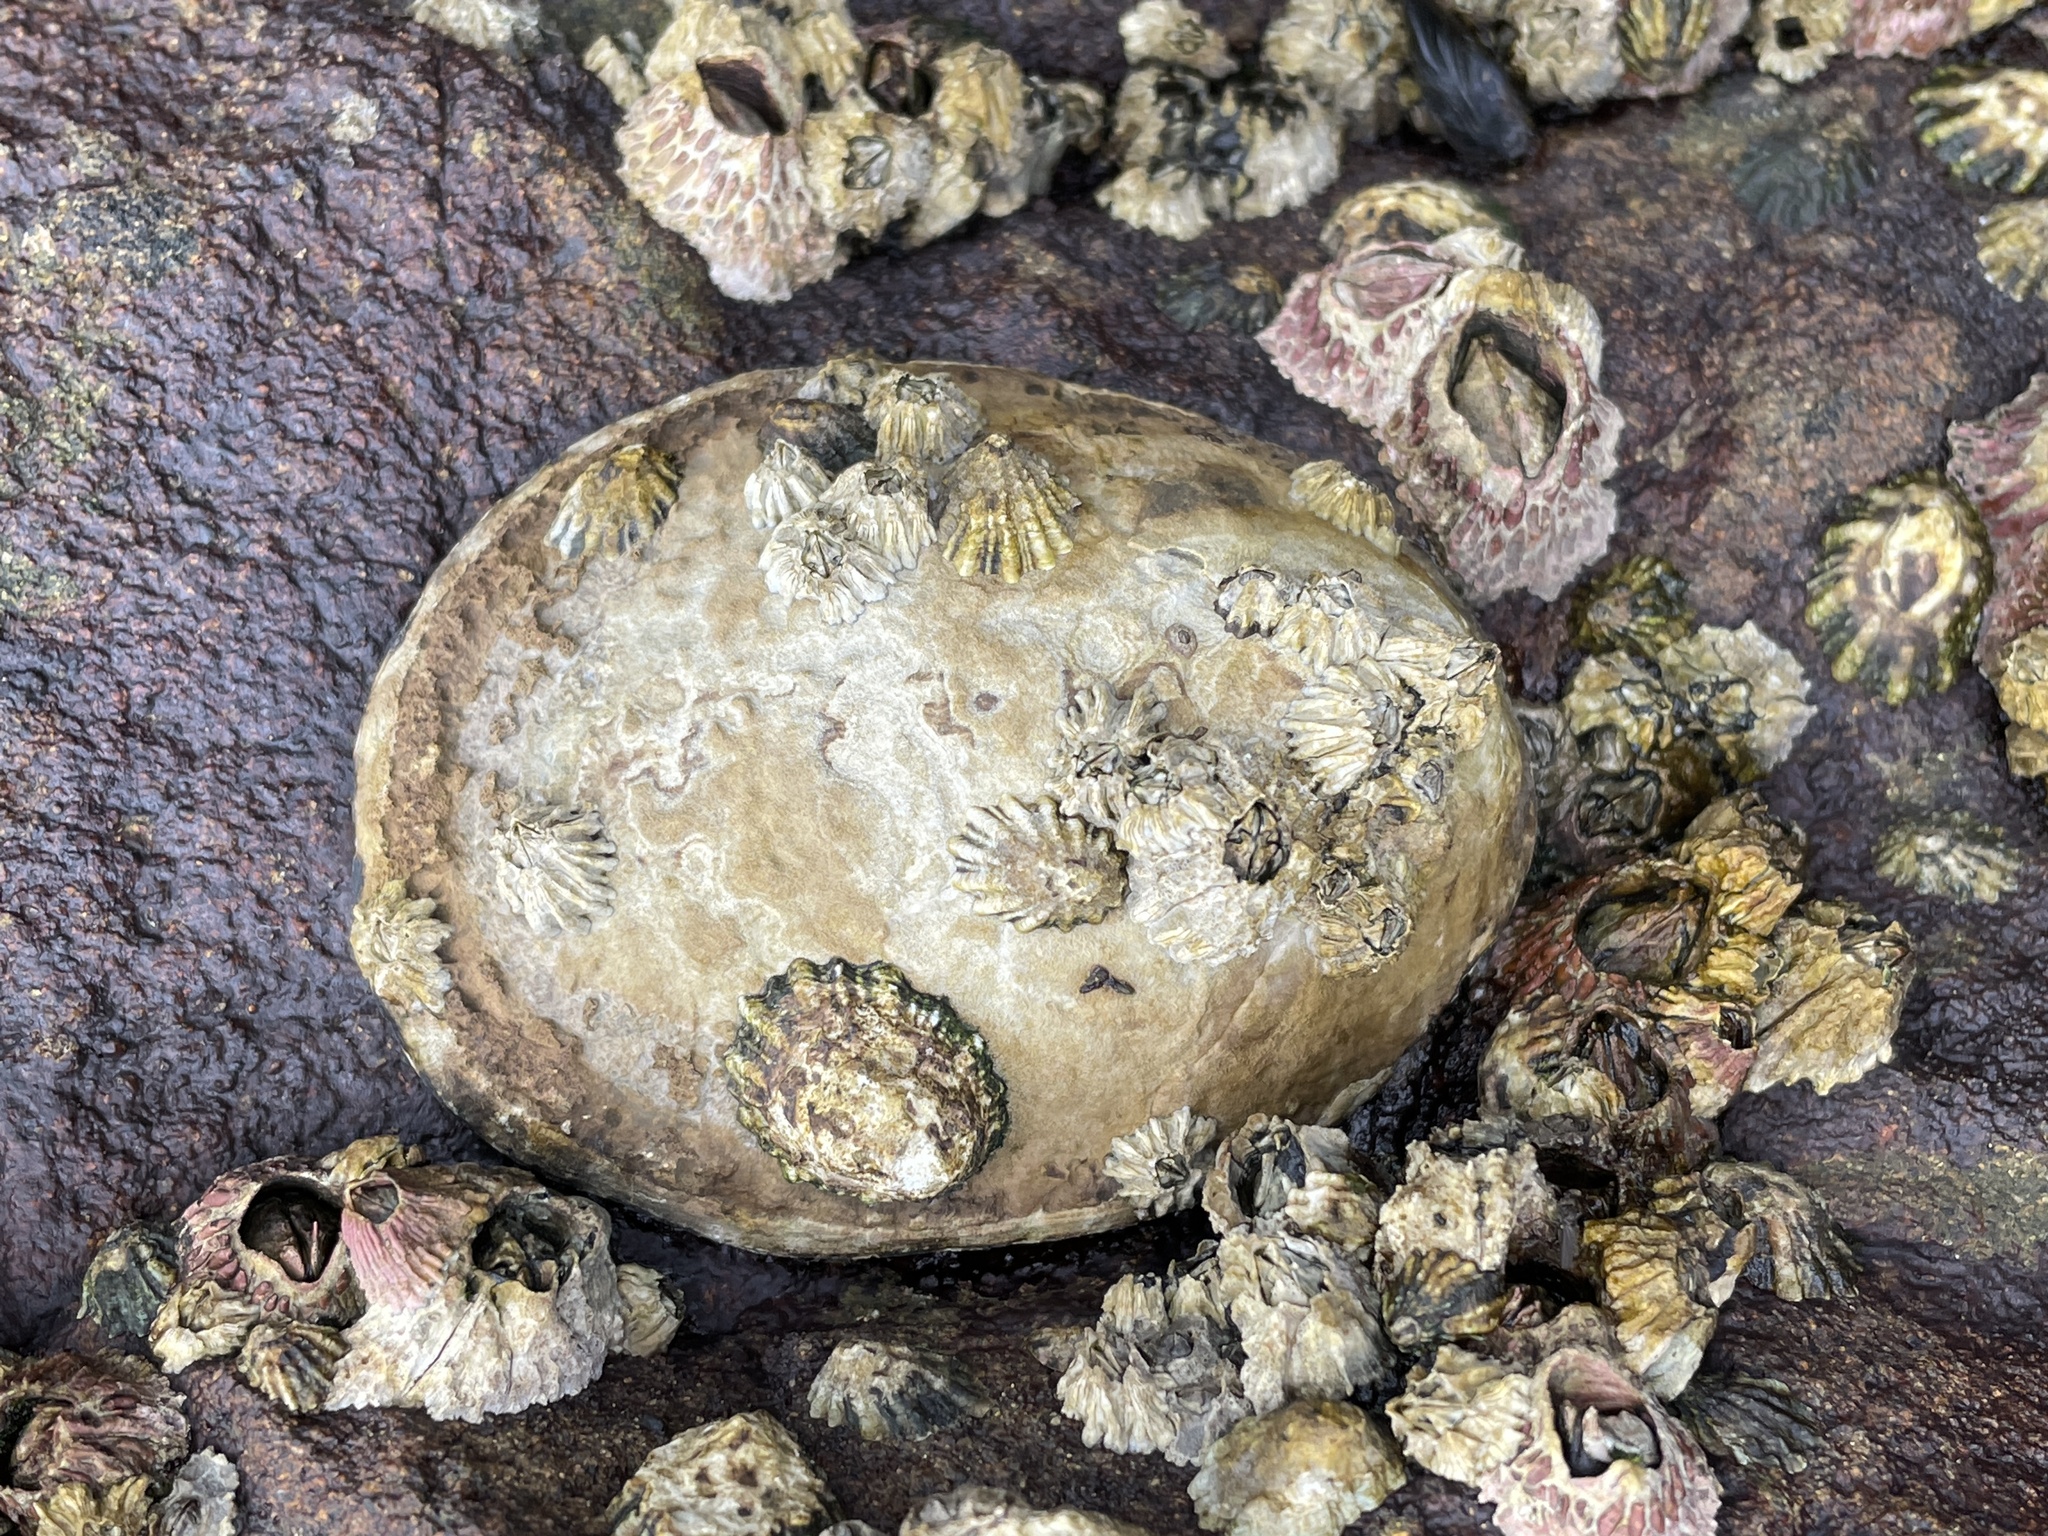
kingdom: Animalia
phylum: Mollusca
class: Gastropoda
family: Lottiidae
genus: Lottia
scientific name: Lottia gigantea
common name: Owl limpet
